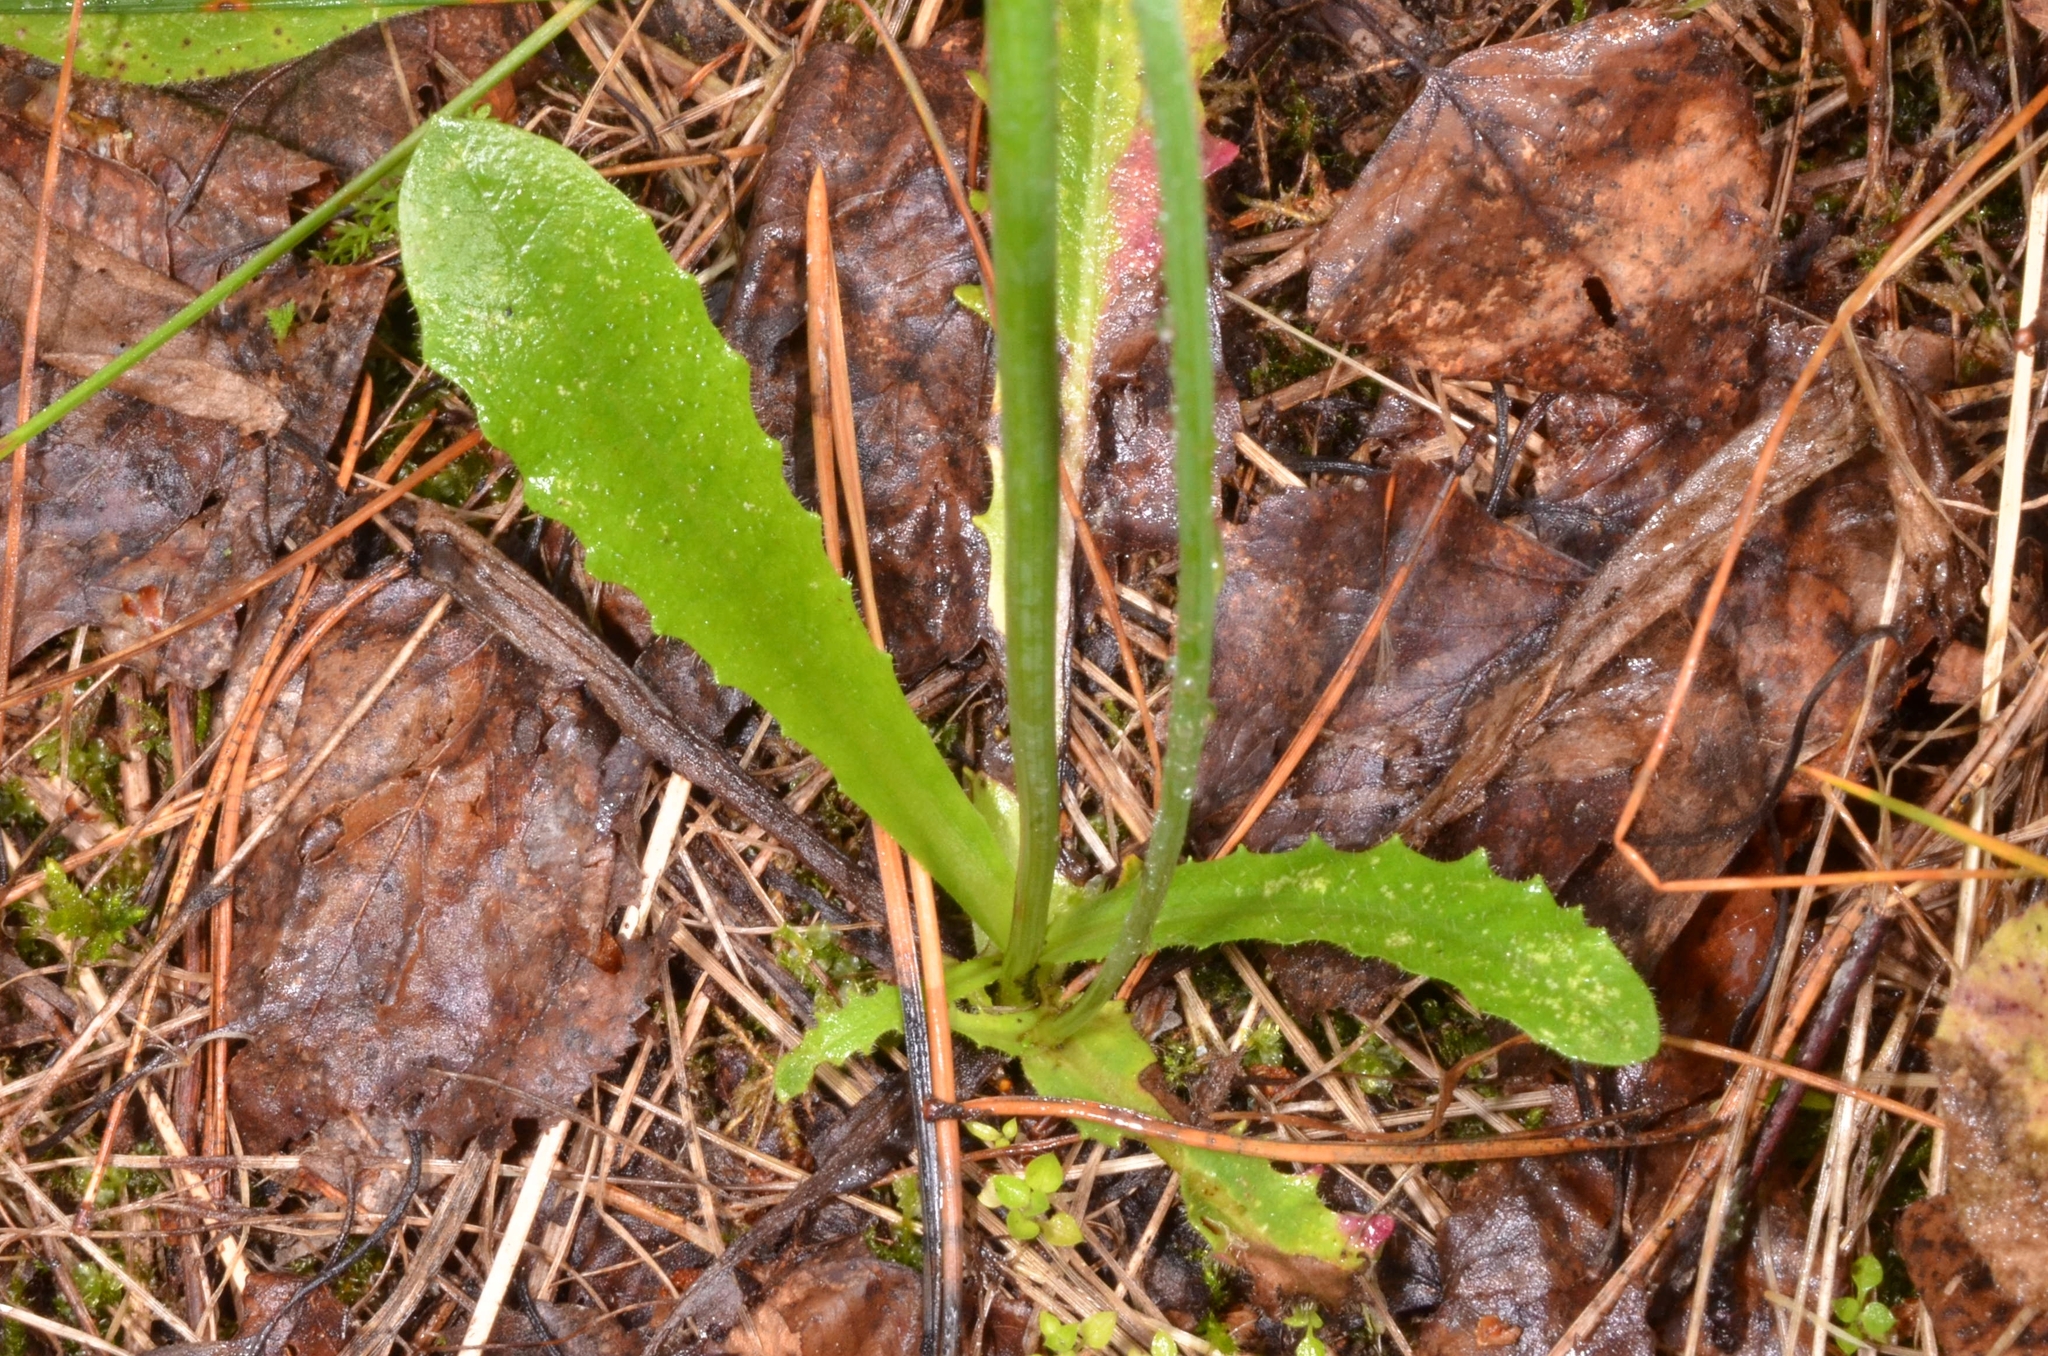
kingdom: Plantae
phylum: Tracheophyta
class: Magnoliopsida
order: Asterales
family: Asteraceae
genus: Hypochaeris
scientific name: Hypochaeris radicata
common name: Flatweed
